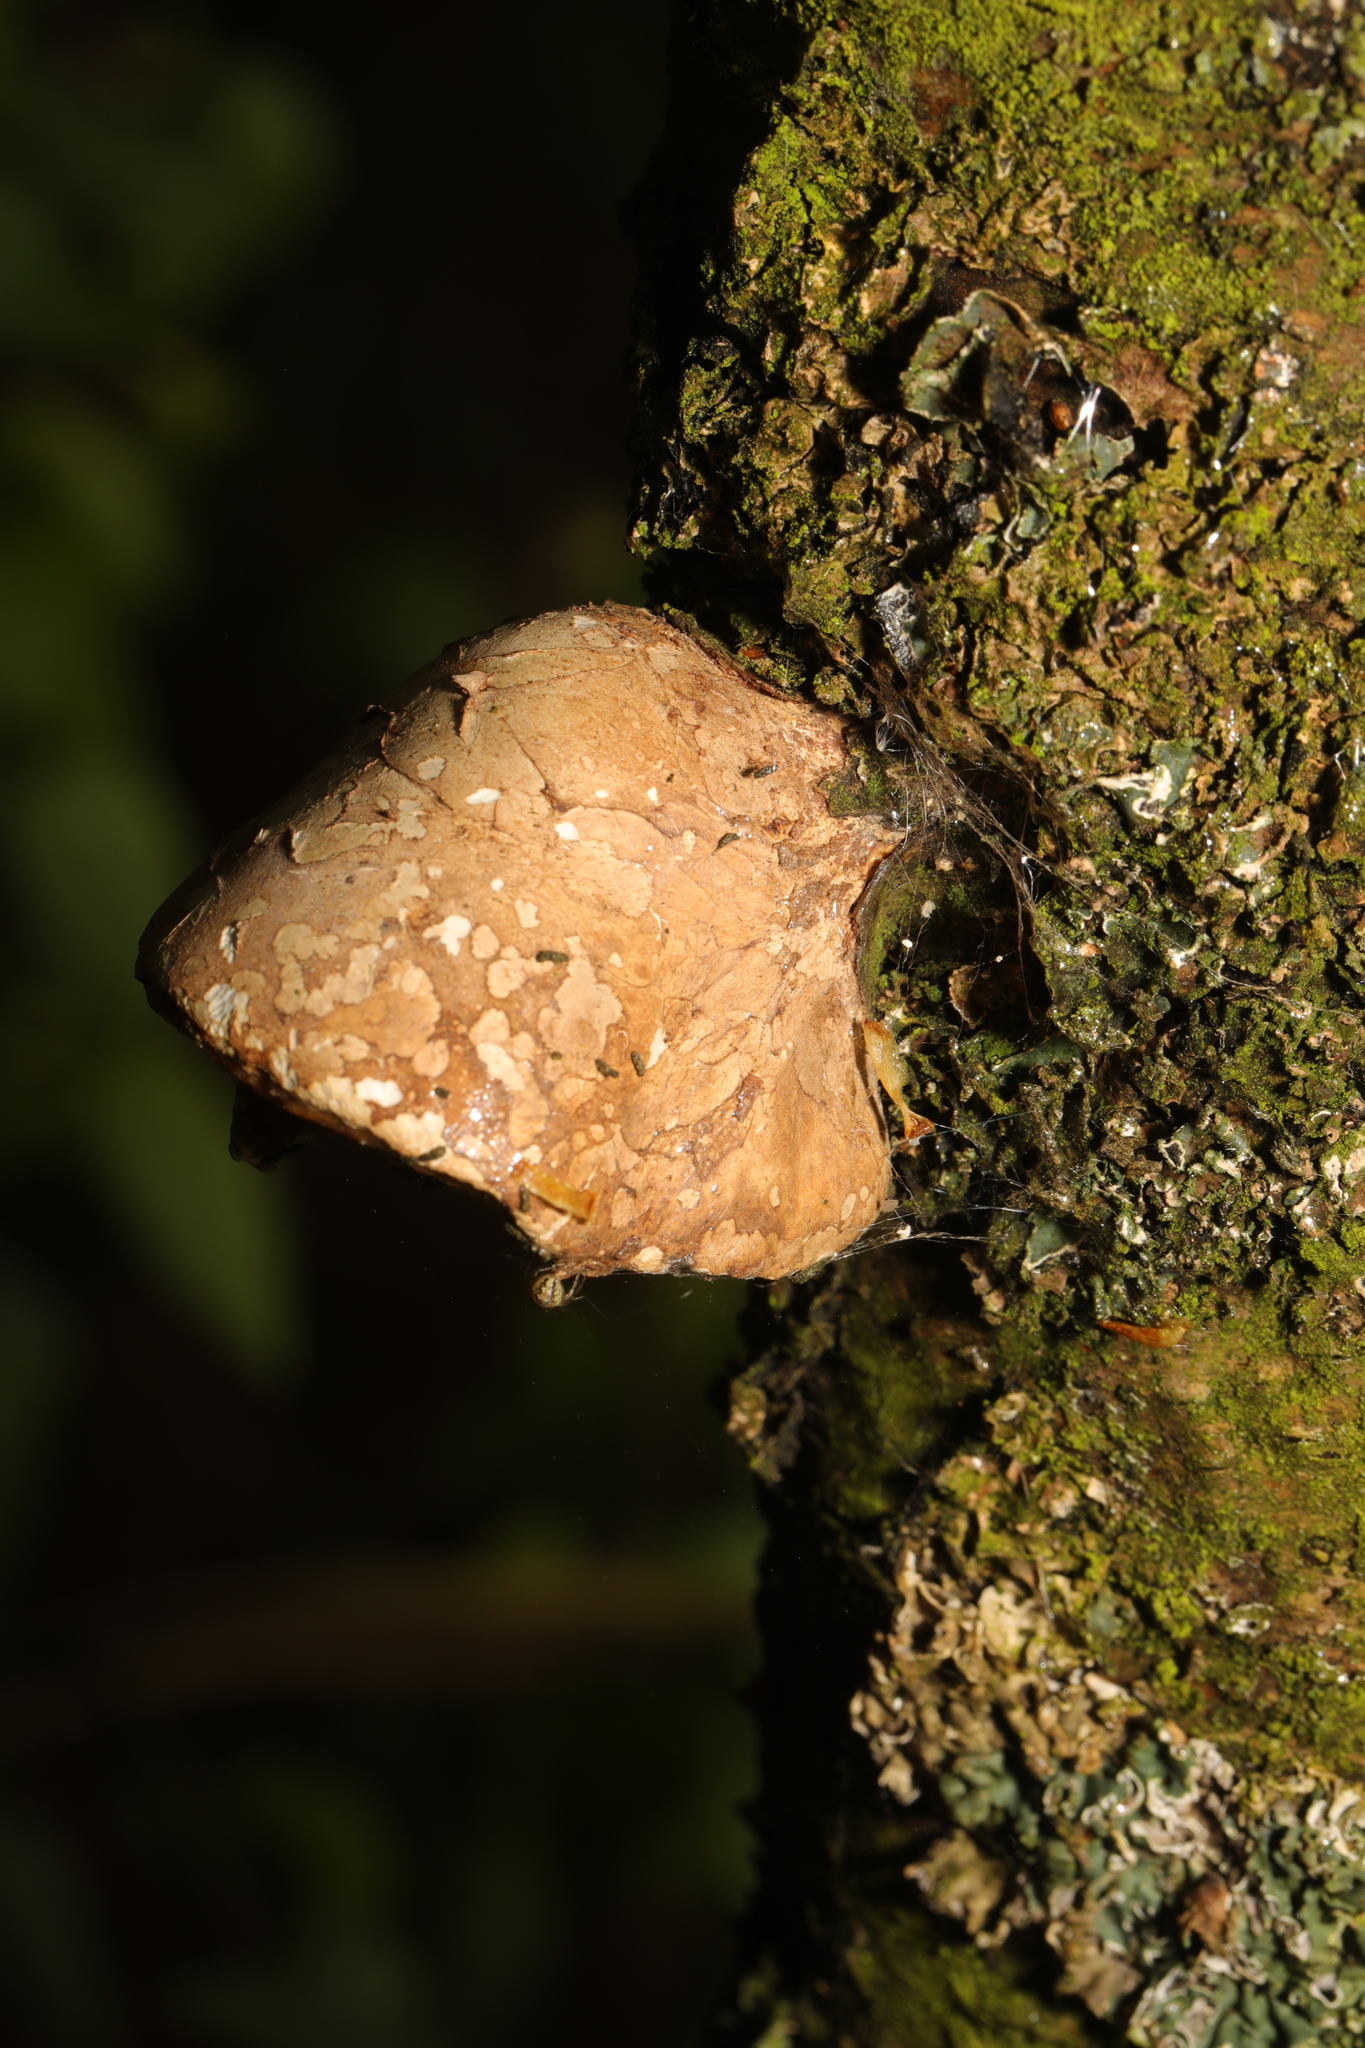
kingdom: Fungi
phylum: Basidiomycota
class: Agaricomycetes
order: Polyporales
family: Fomitopsidaceae
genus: Fomitopsis
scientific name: Fomitopsis betulina
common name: Birch polypore
